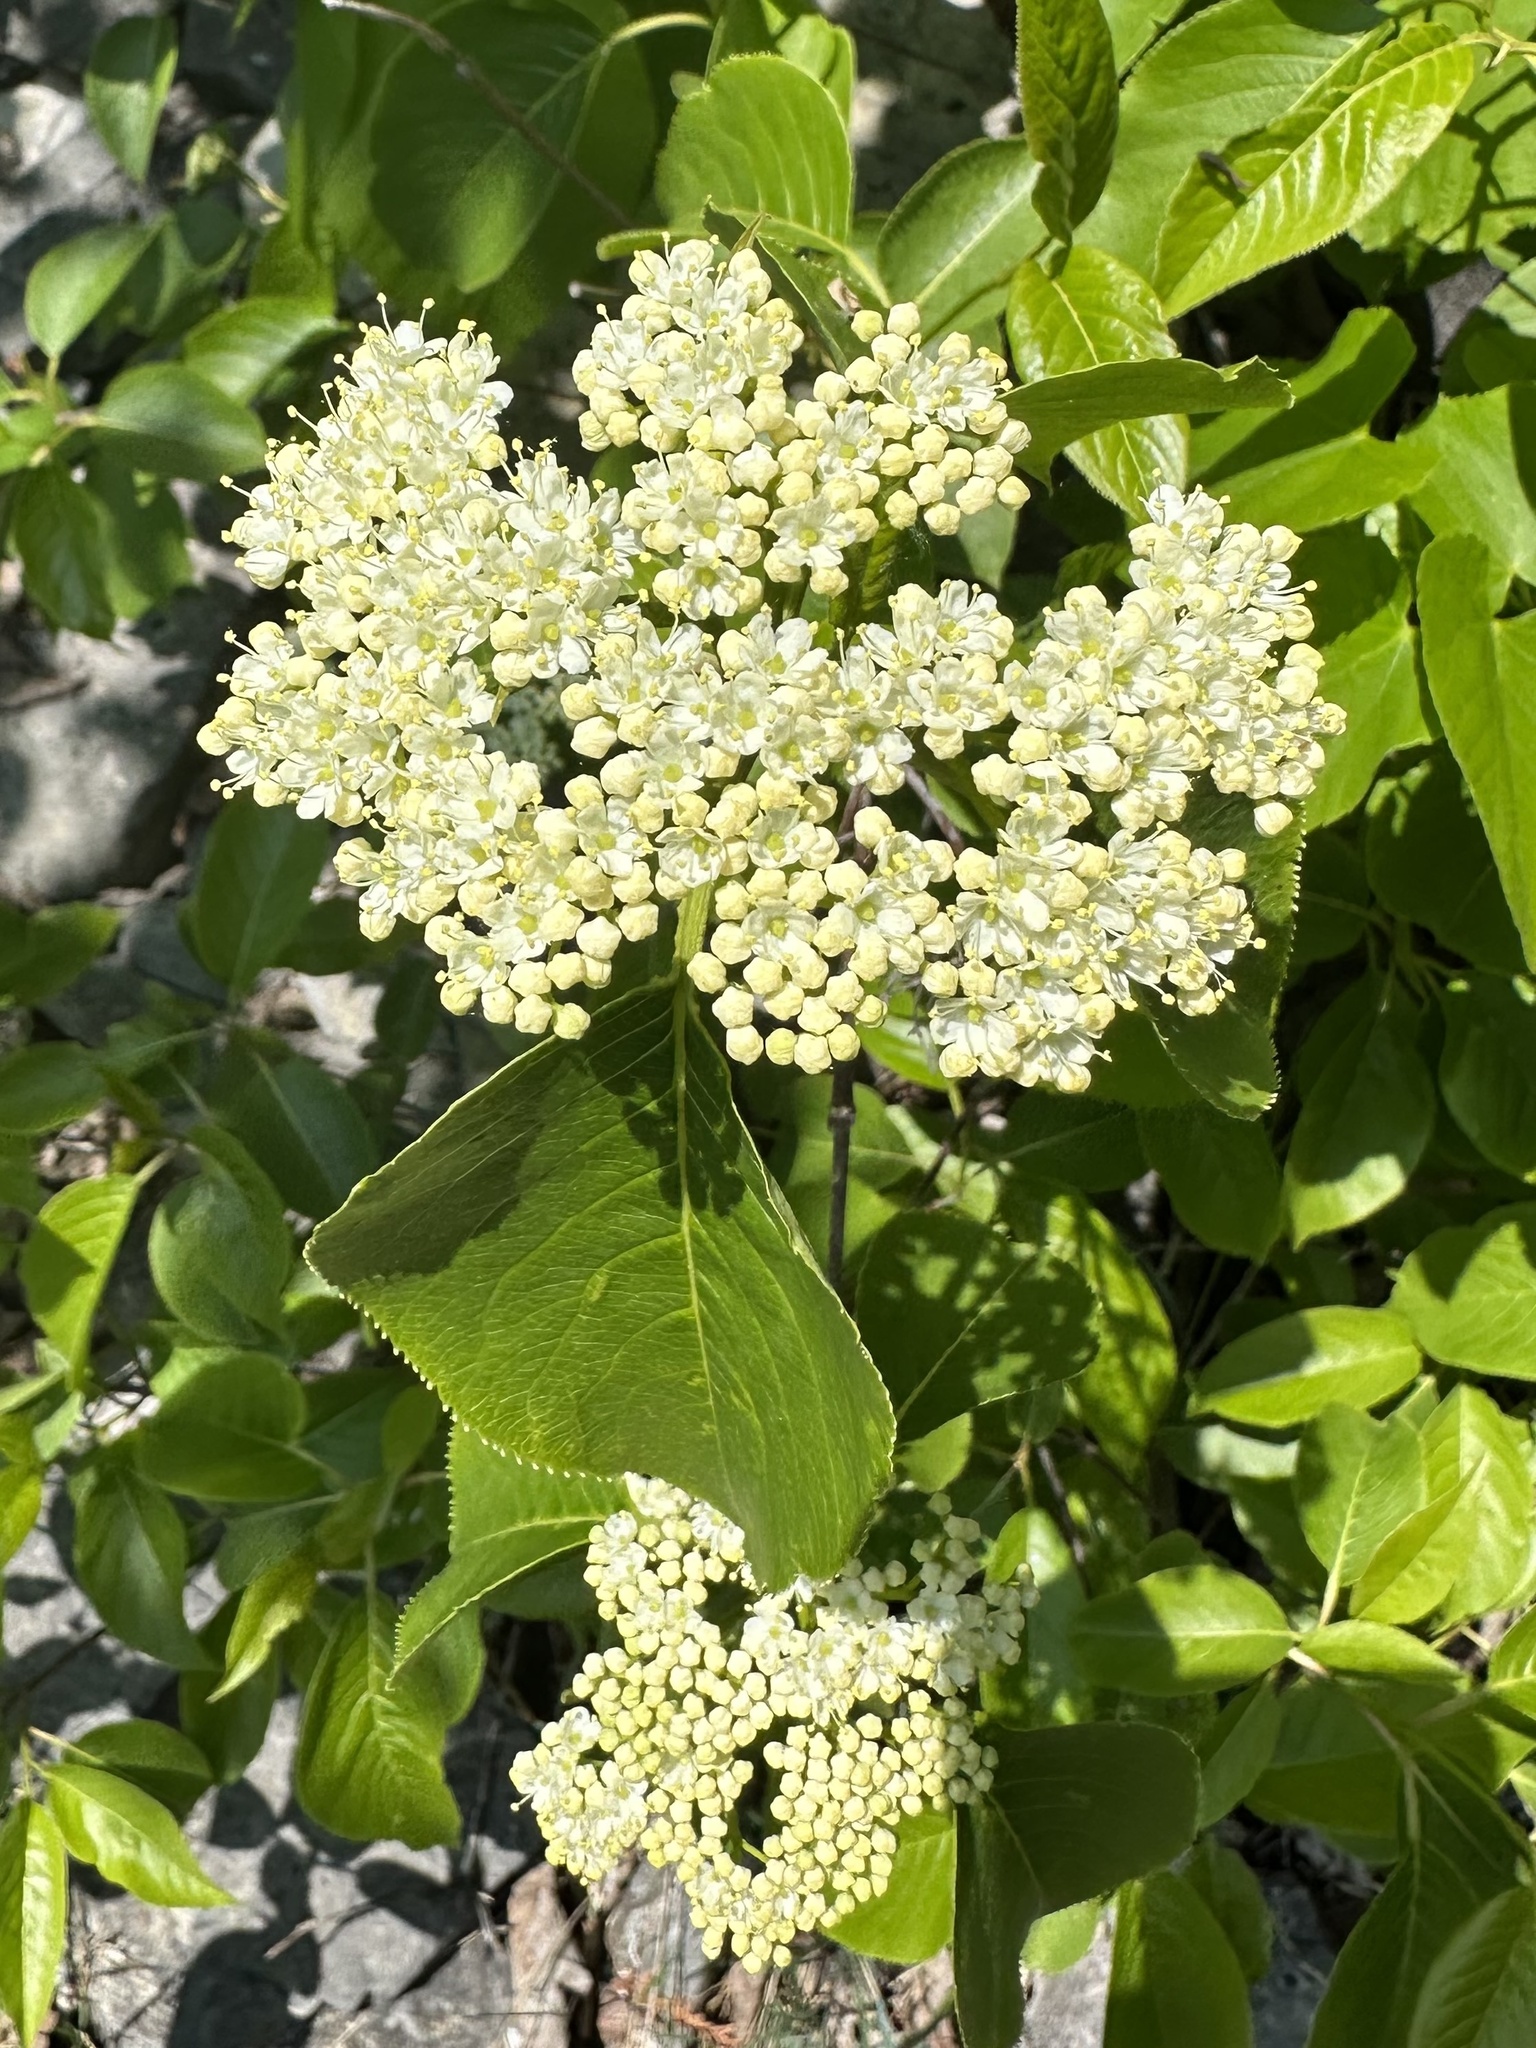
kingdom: Plantae
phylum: Tracheophyta
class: Magnoliopsida
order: Dipsacales
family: Viburnaceae
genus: Viburnum
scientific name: Viburnum lentago
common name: Black haw
